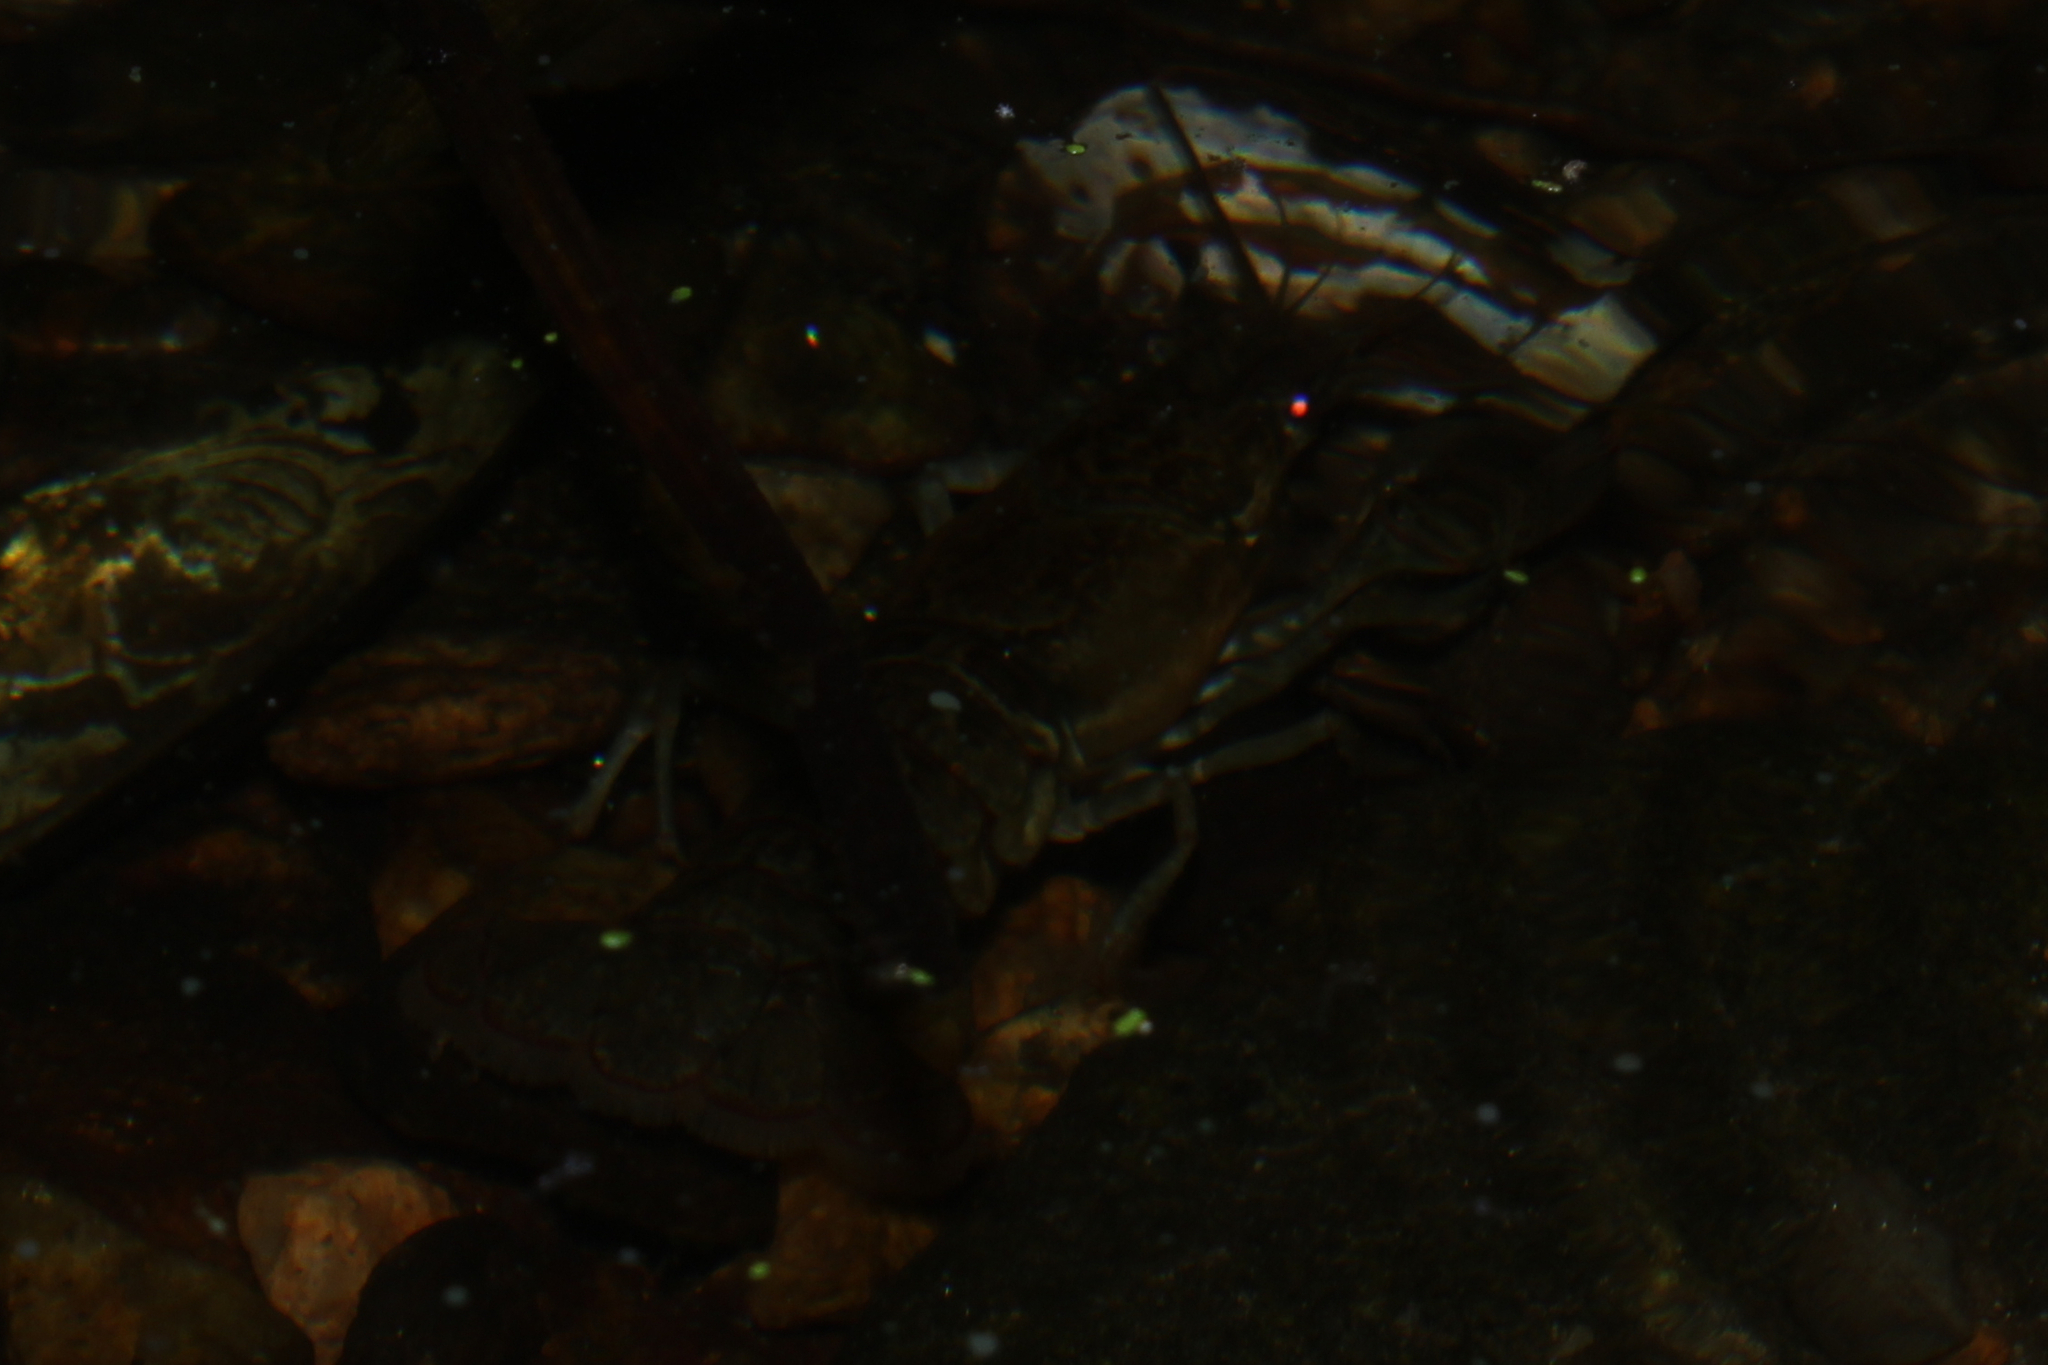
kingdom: Animalia
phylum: Arthropoda
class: Malacostraca
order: Decapoda
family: Cambaridae
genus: Faxonius
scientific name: Faxonius virilis
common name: Virile crayfish
